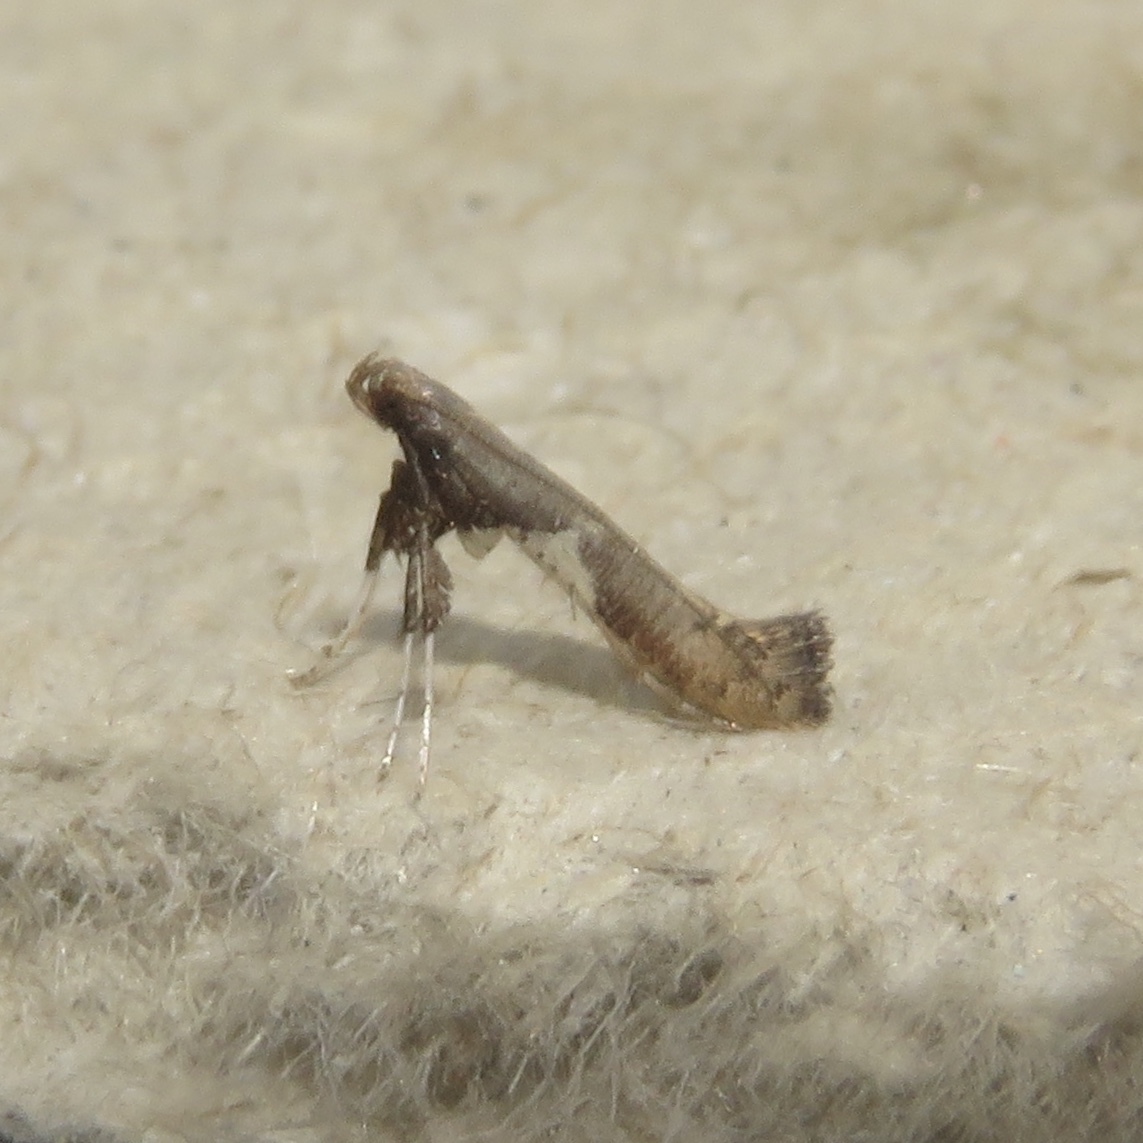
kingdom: Animalia
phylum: Arthropoda
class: Insecta
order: Lepidoptera
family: Gracillariidae
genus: Caloptilia
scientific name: Caloptilia stigmatella
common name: White-triangle slender
